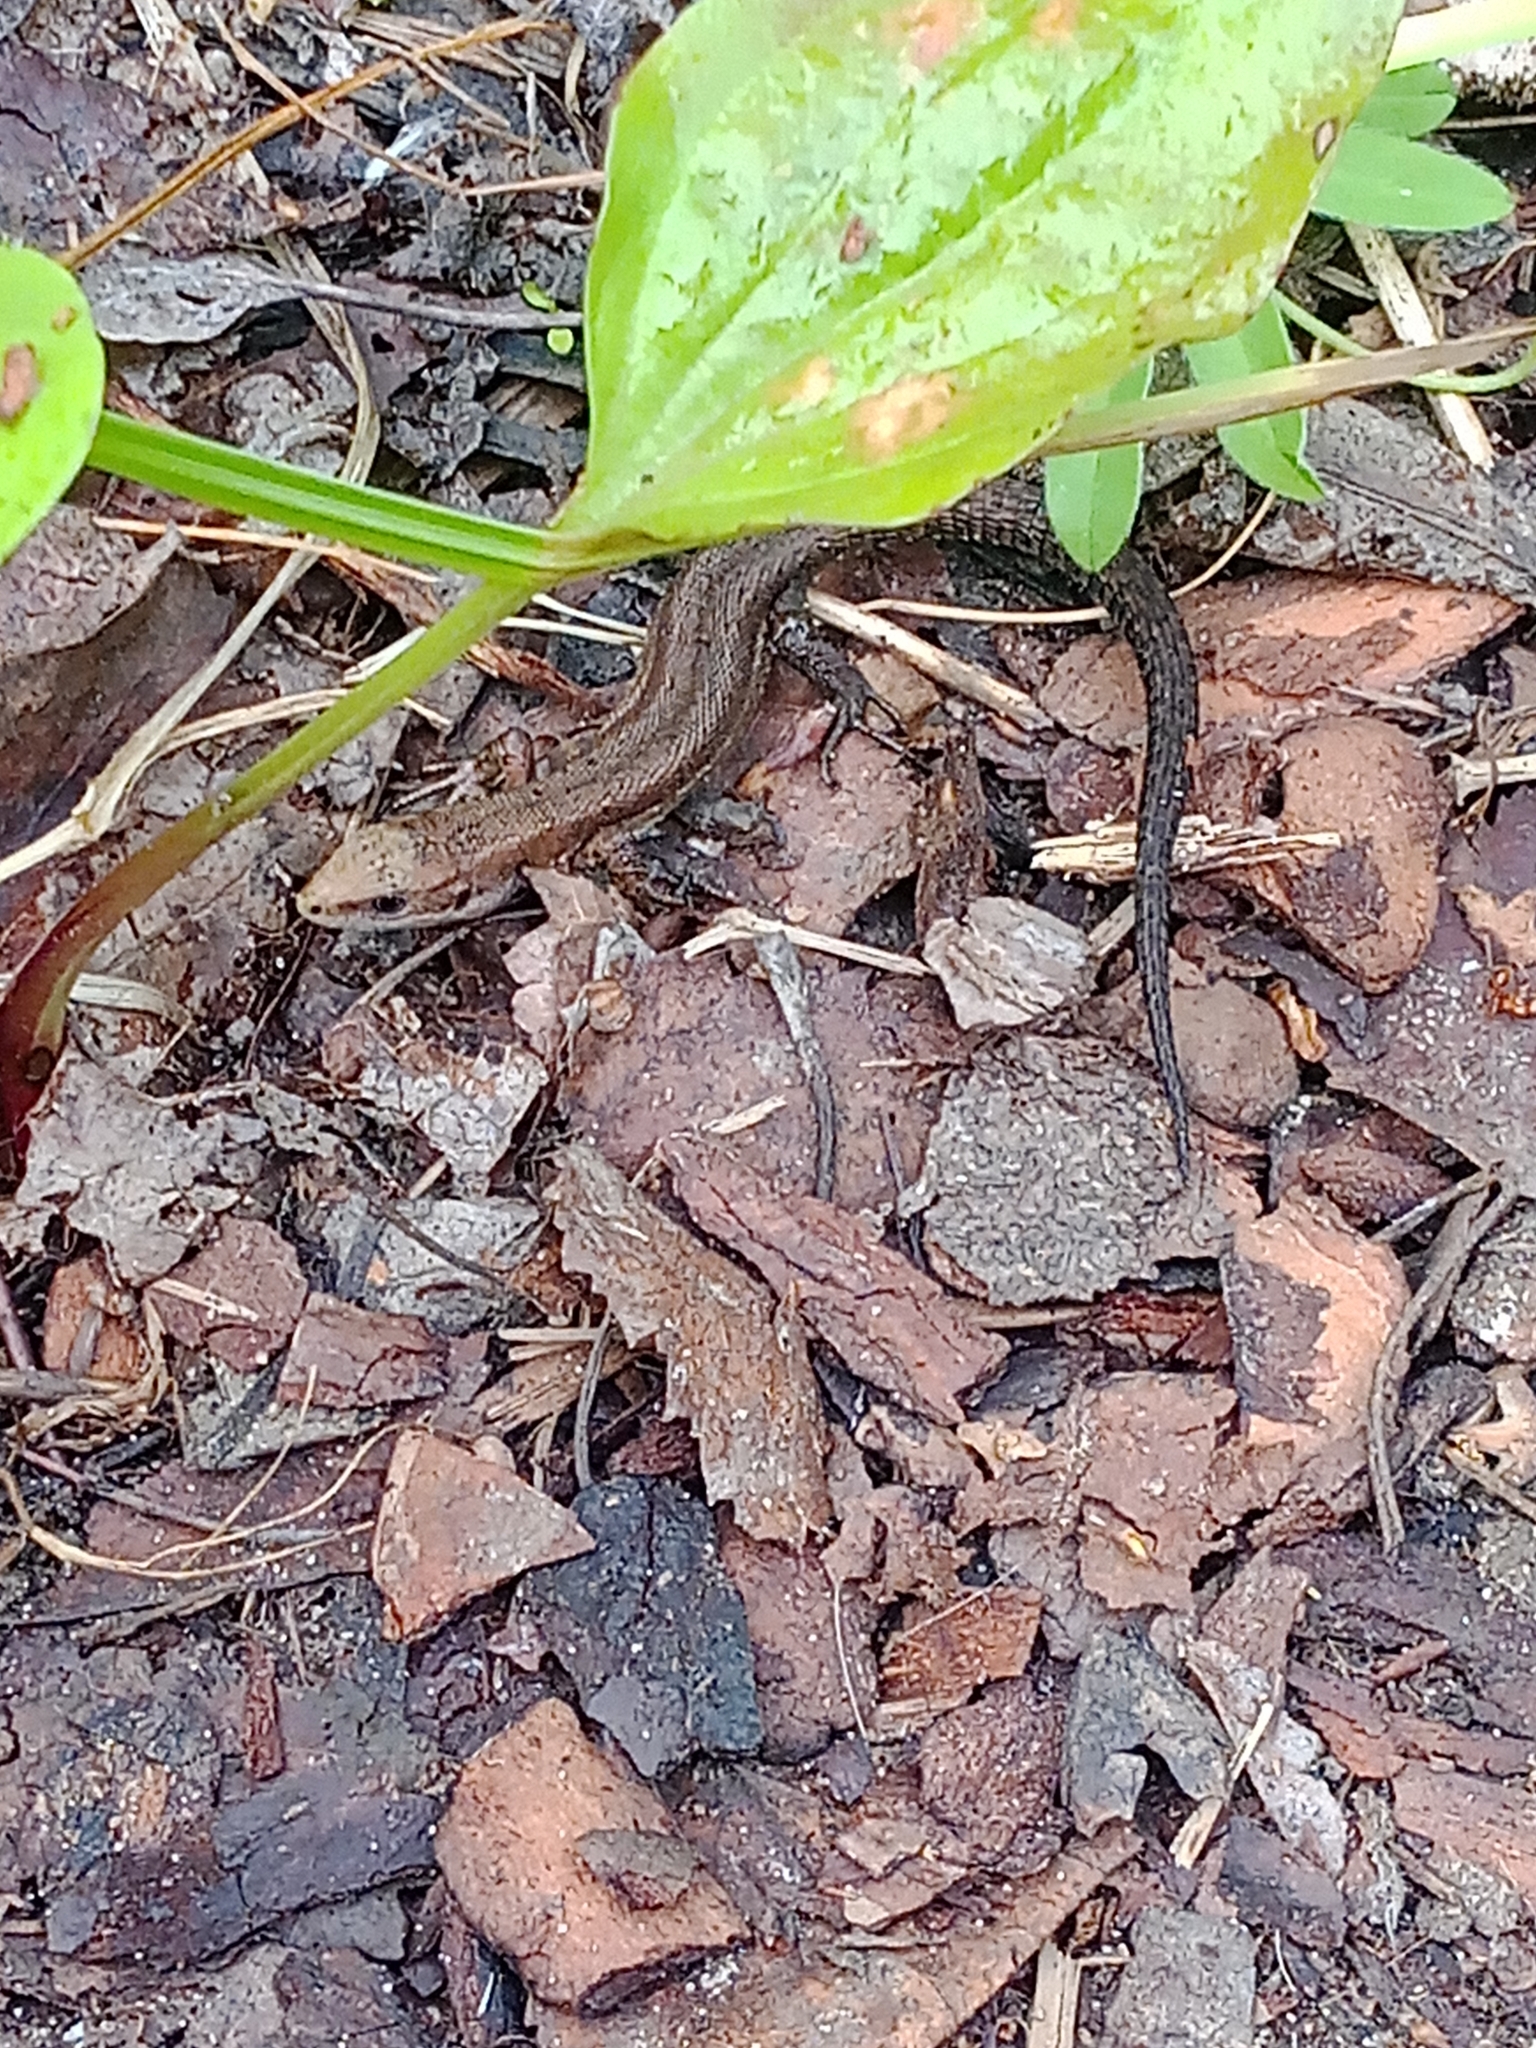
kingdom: Animalia
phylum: Chordata
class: Squamata
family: Lacertidae
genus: Zootoca
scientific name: Zootoca vivipara
